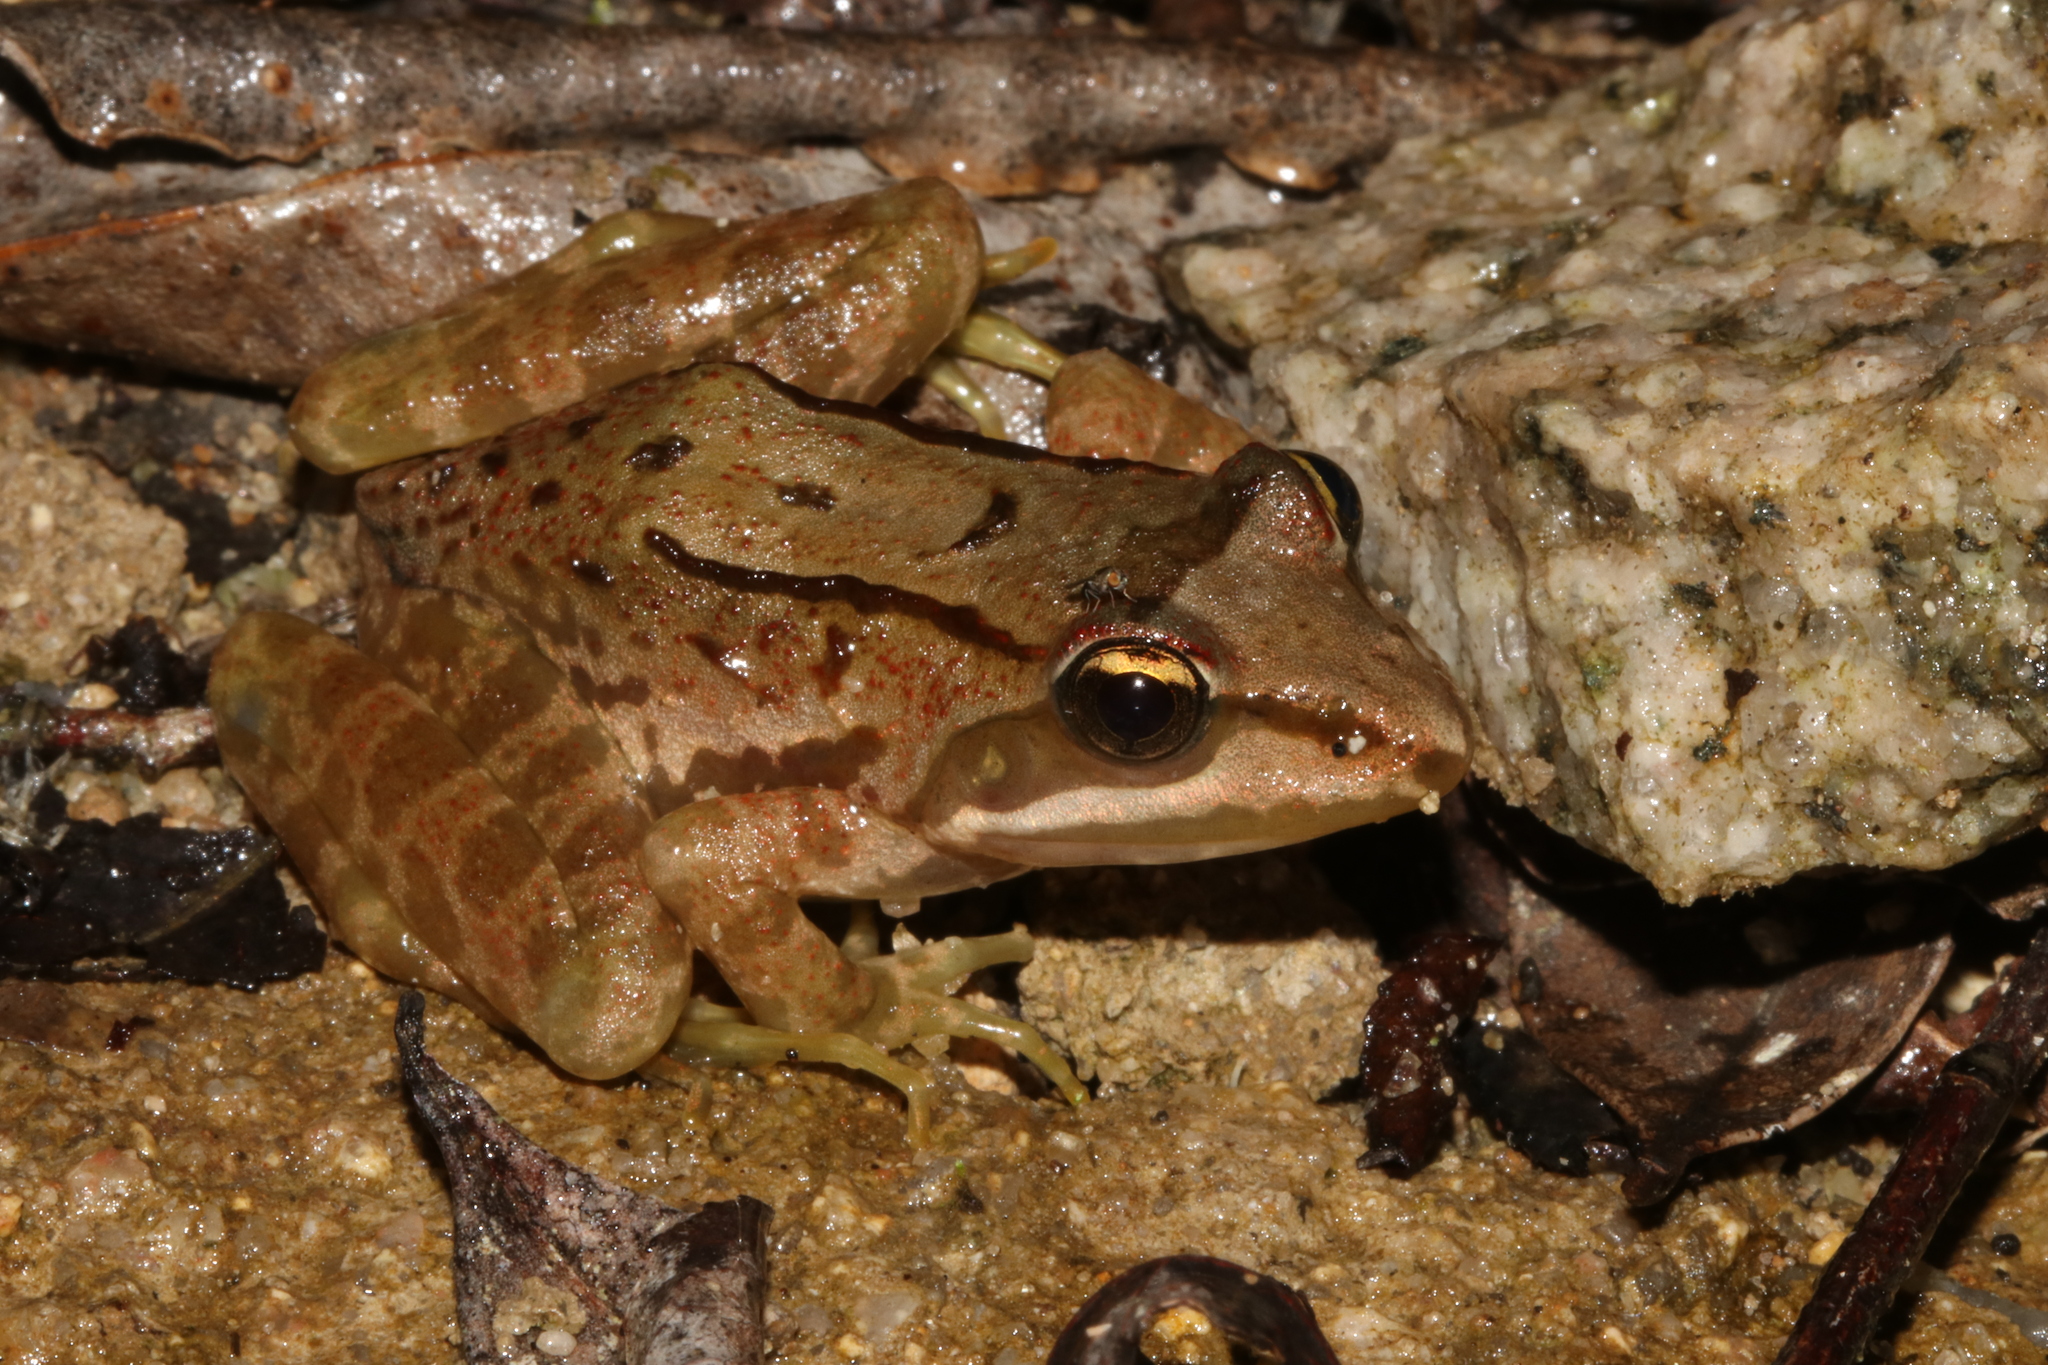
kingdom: Animalia
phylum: Chordata
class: Amphibia
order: Anura
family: Pyxicephalidae
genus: Amietia
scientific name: Amietia tenuoplicata
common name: River frog
